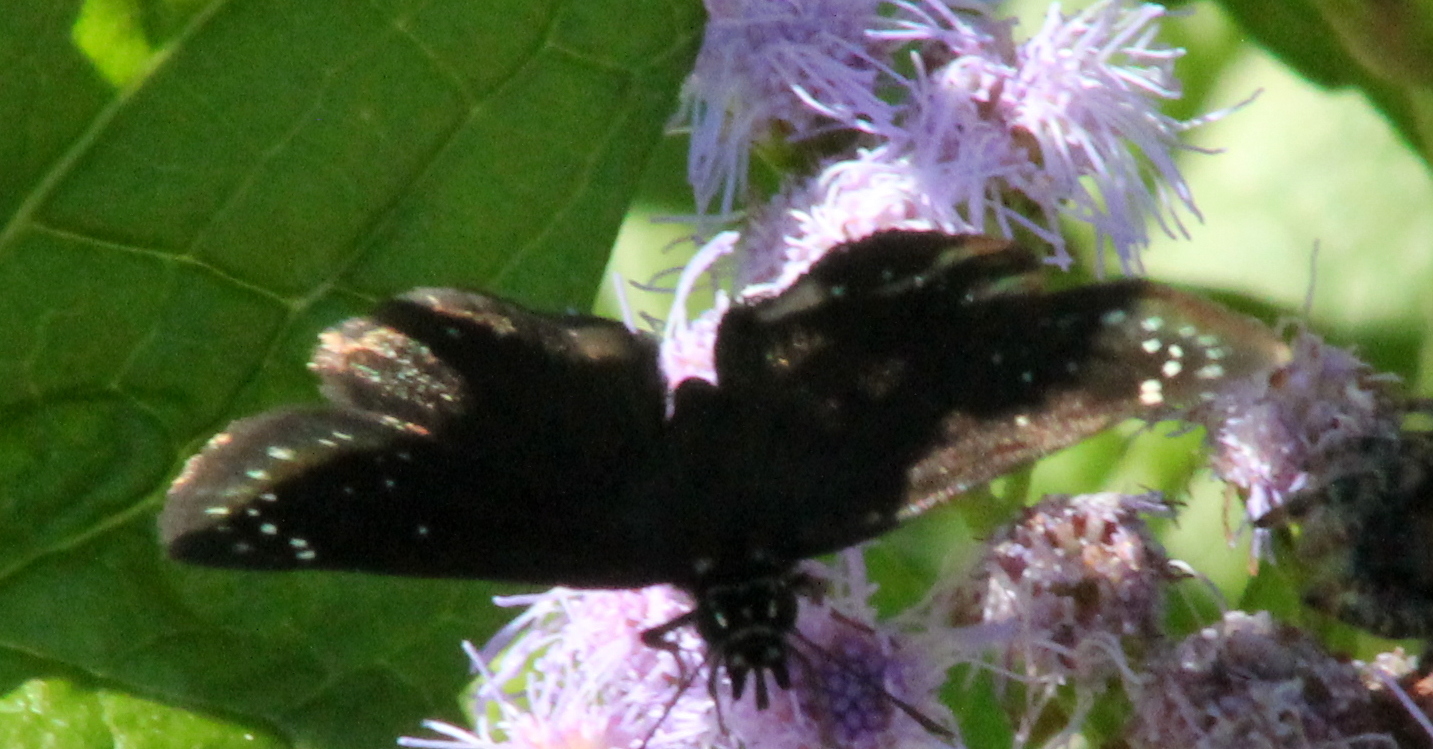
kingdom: Animalia
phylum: Arthropoda
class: Insecta
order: Lepidoptera
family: Hesperiidae
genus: Pholisora
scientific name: Pholisora catullus
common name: Common sootywing
